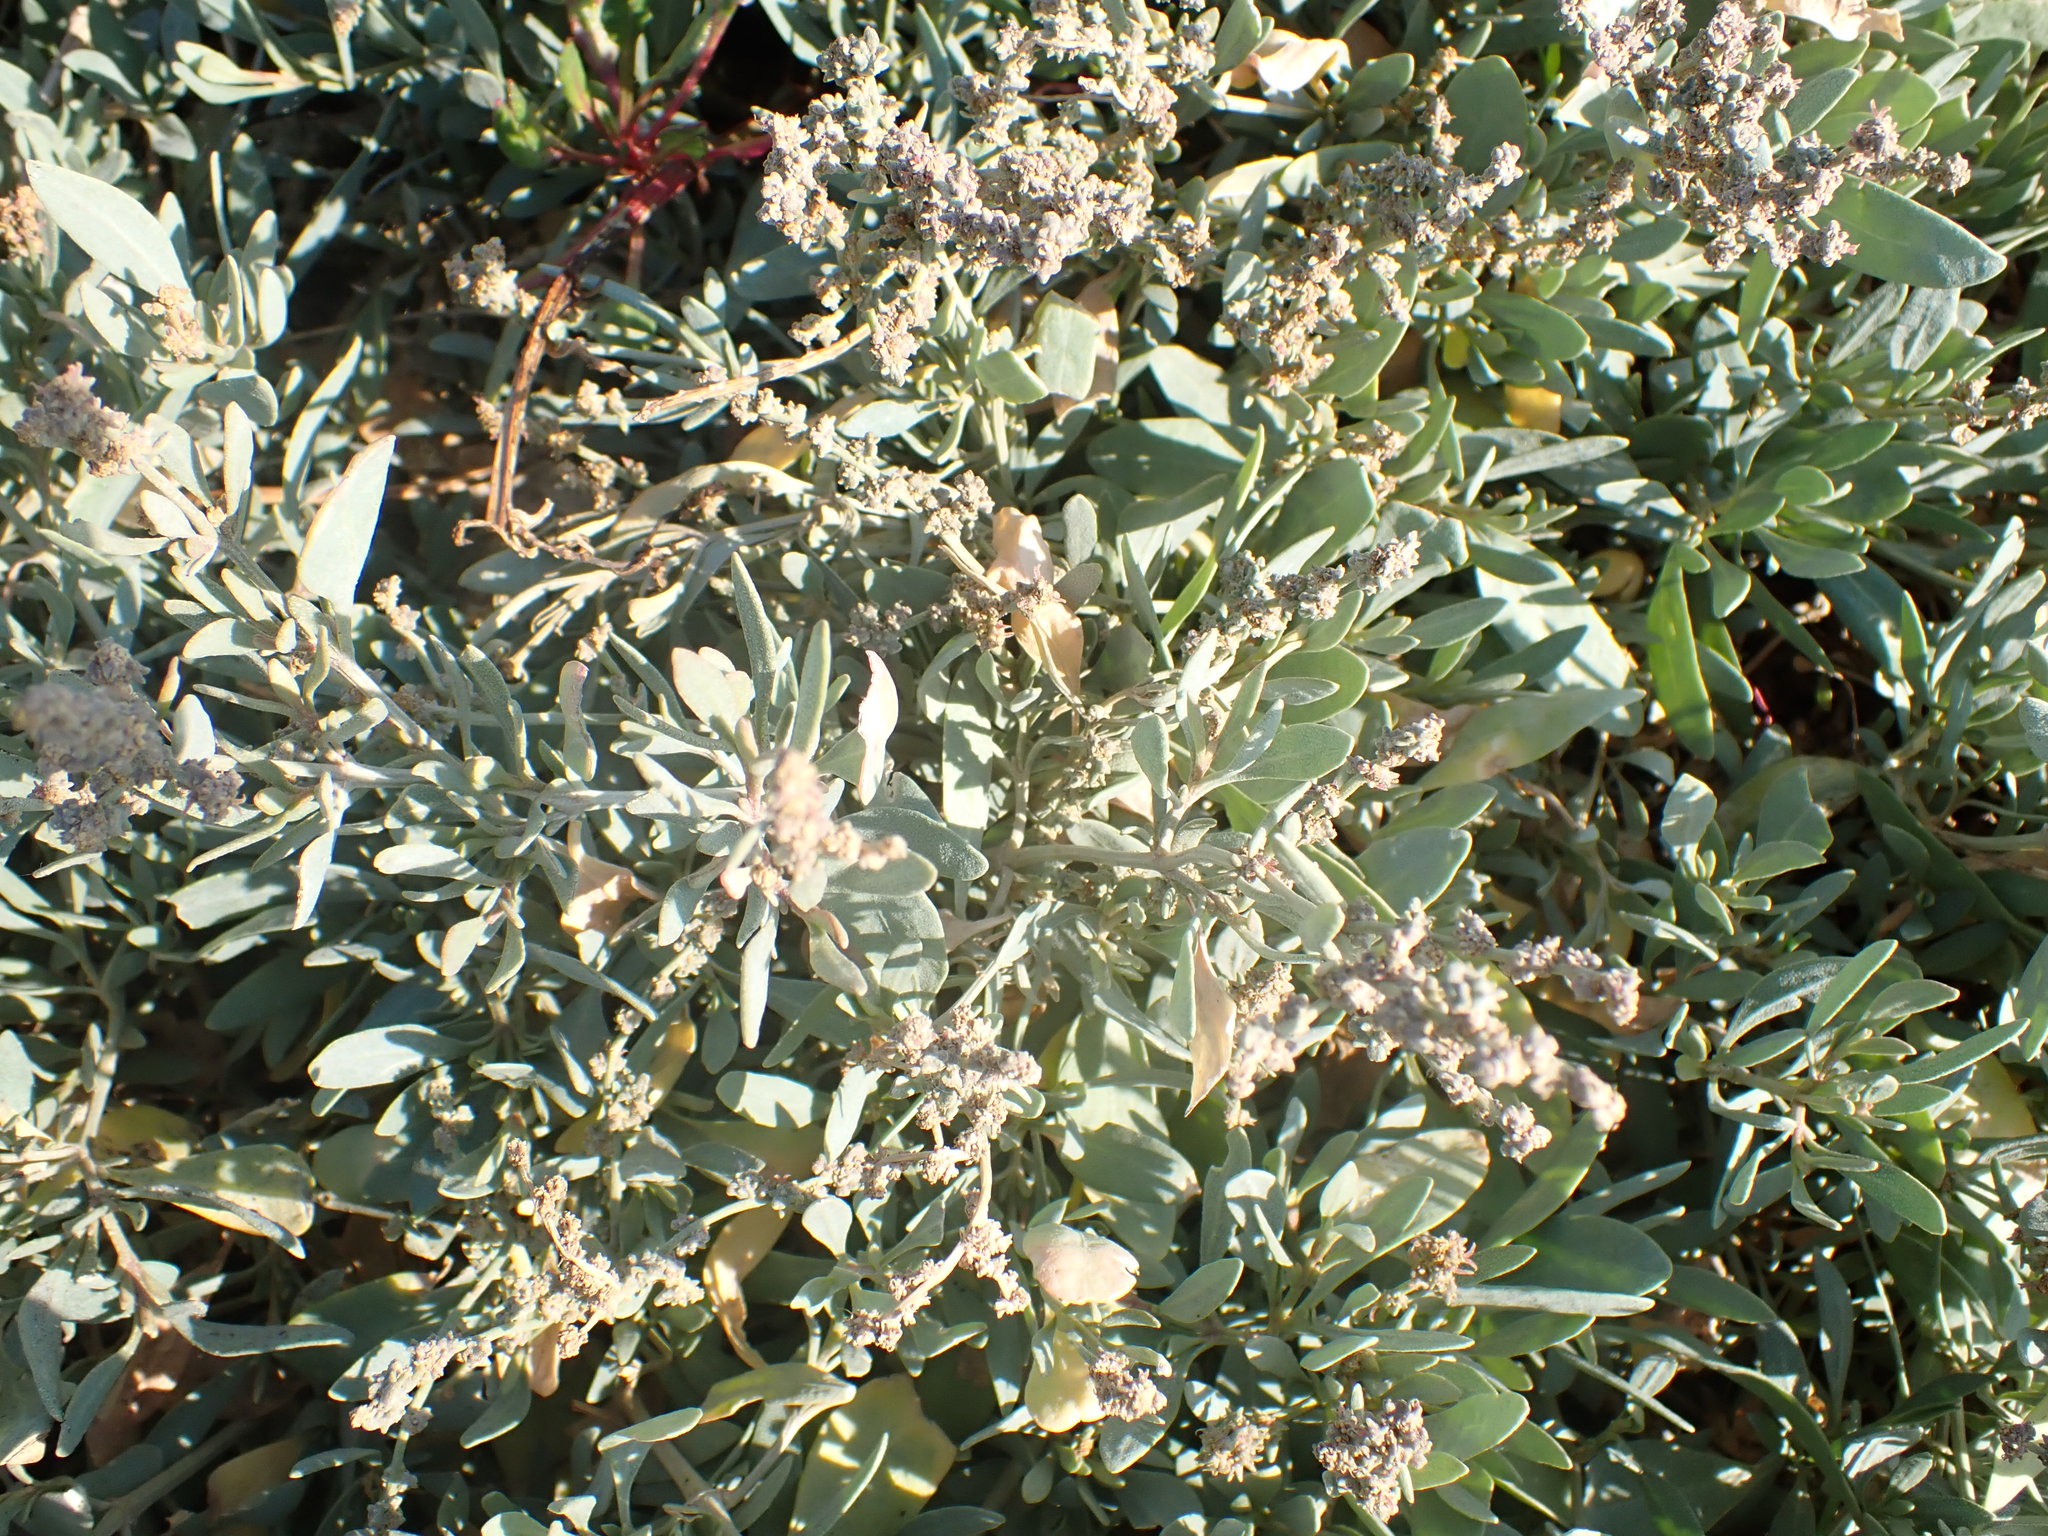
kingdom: Plantae
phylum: Tracheophyta
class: Magnoliopsida
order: Caryophyllales
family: Amaranthaceae
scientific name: Amaranthaceae
